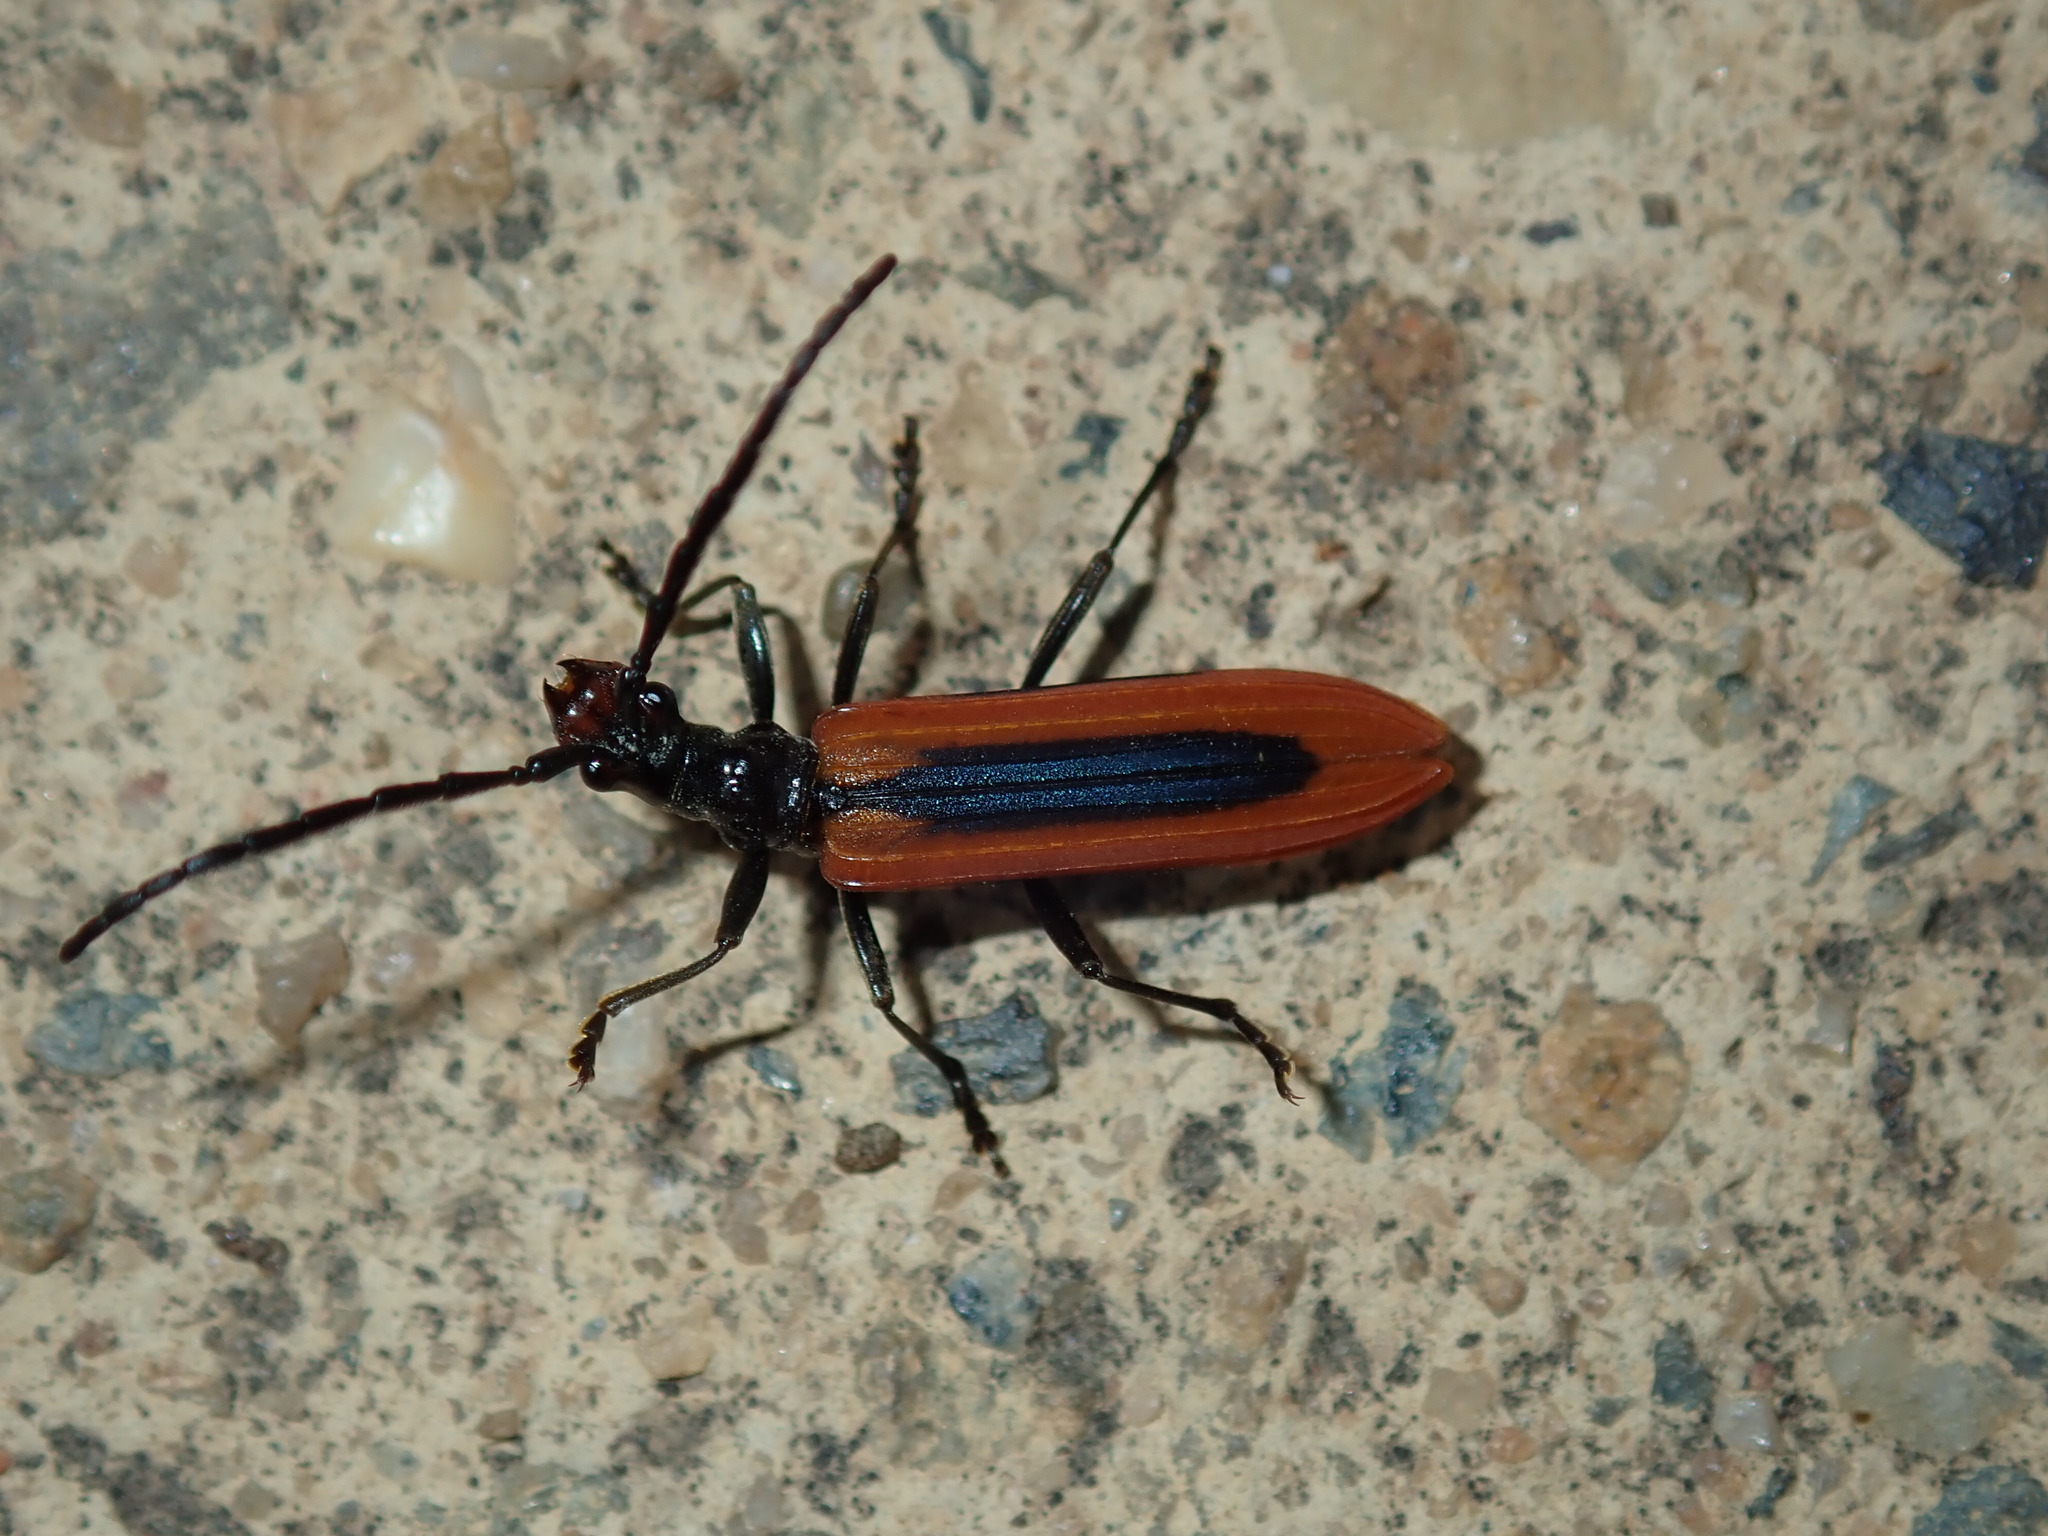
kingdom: Animalia
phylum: Arthropoda
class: Insecta
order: Coleoptera
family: Cerambycidae
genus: Stenoderus
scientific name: Stenoderus suturalis
